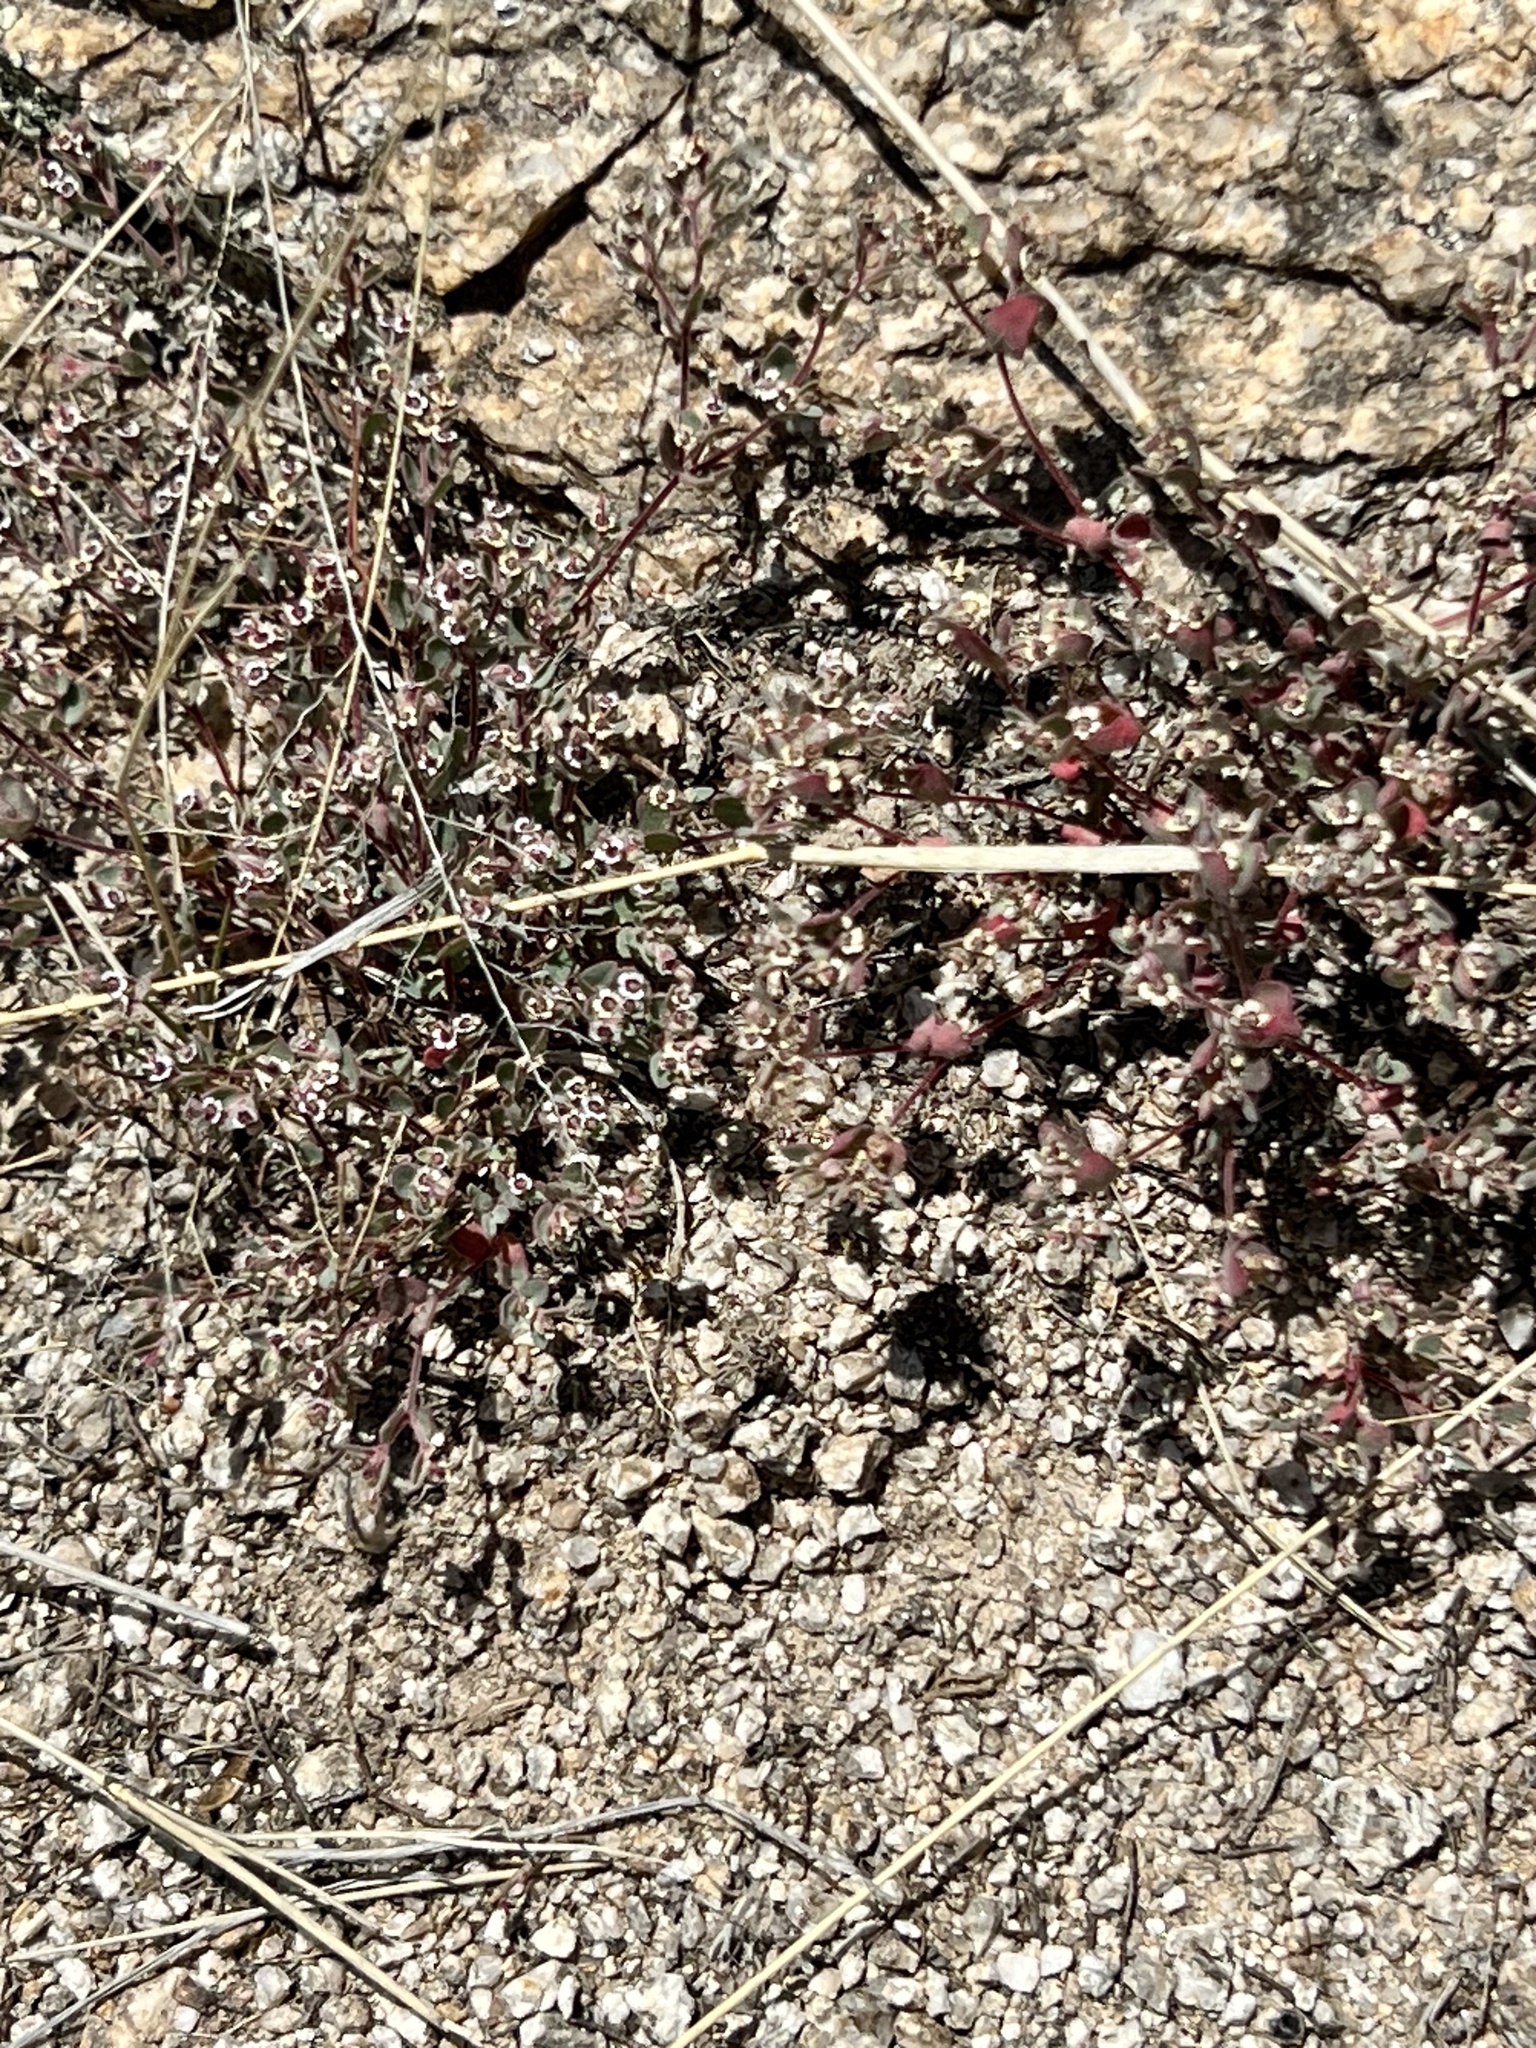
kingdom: Plantae
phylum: Tracheophyta
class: Magnoliopsida
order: Malpighiales
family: Euphorbiaceae
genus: Euphorbia
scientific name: Euphorbia melanadenia
